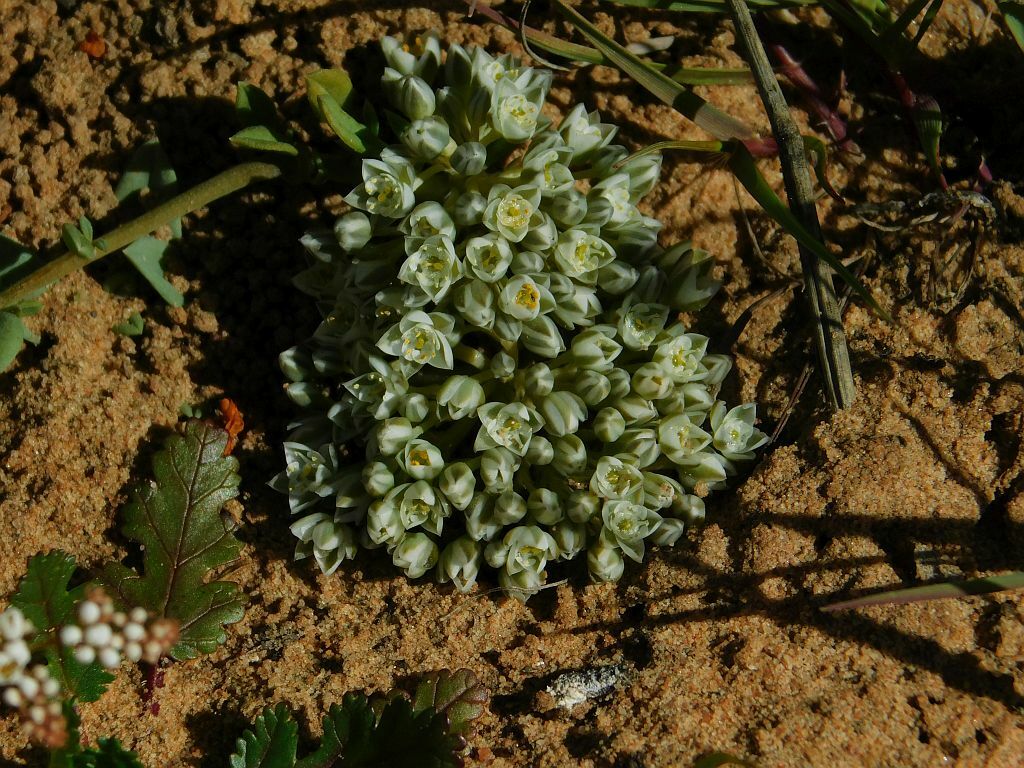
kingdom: Plantae
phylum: Tracheophyta
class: Magnoliopsida
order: Caryophyllales
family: Limeaceae
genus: Limeum
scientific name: Limeum africanum
